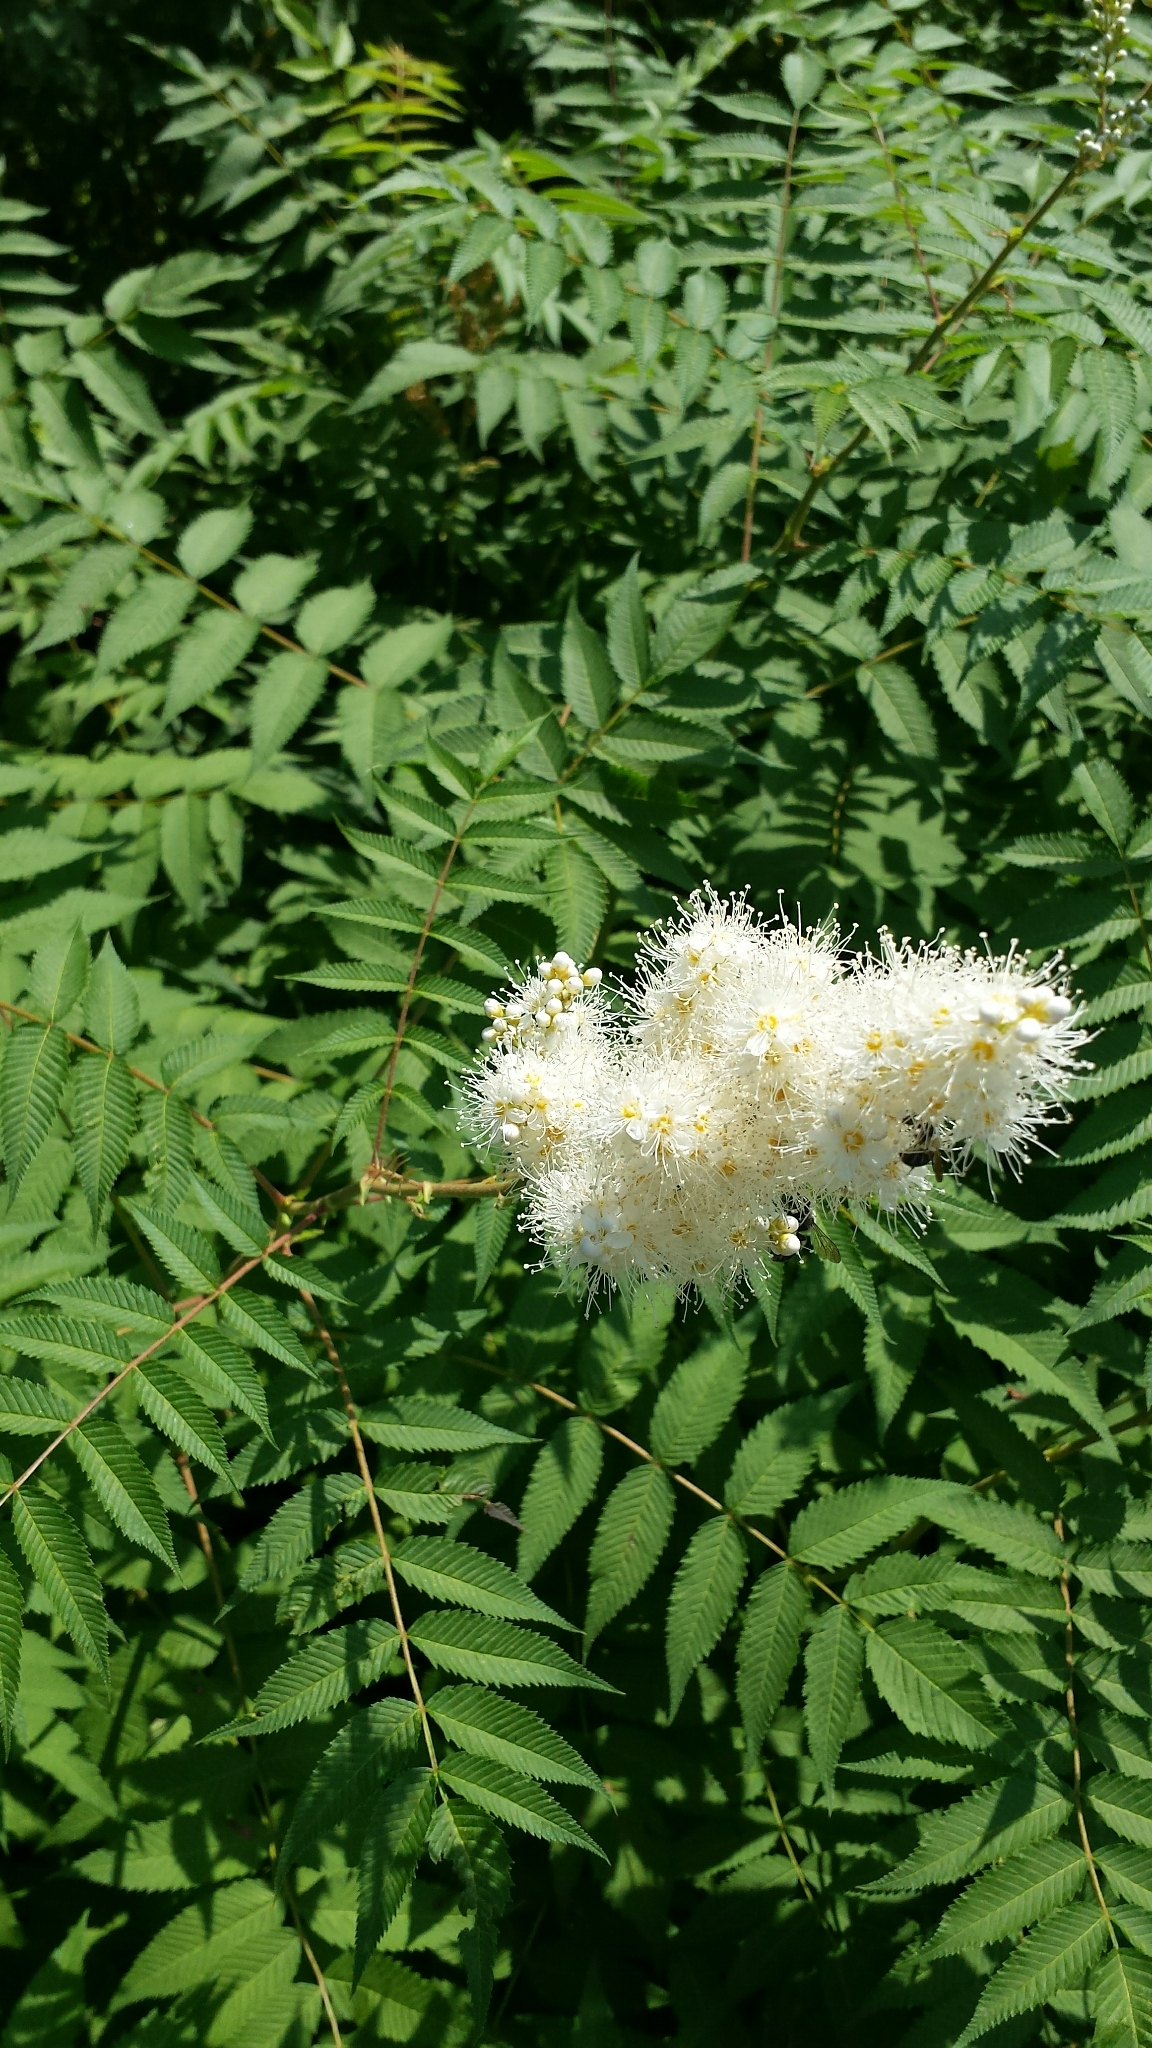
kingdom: Plantae
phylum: Tracheophyta
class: Magnoliopsida
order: Rosales
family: Rosaceae
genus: Sorbaria
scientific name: Sorbaria sorbifolia
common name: False spiraea
